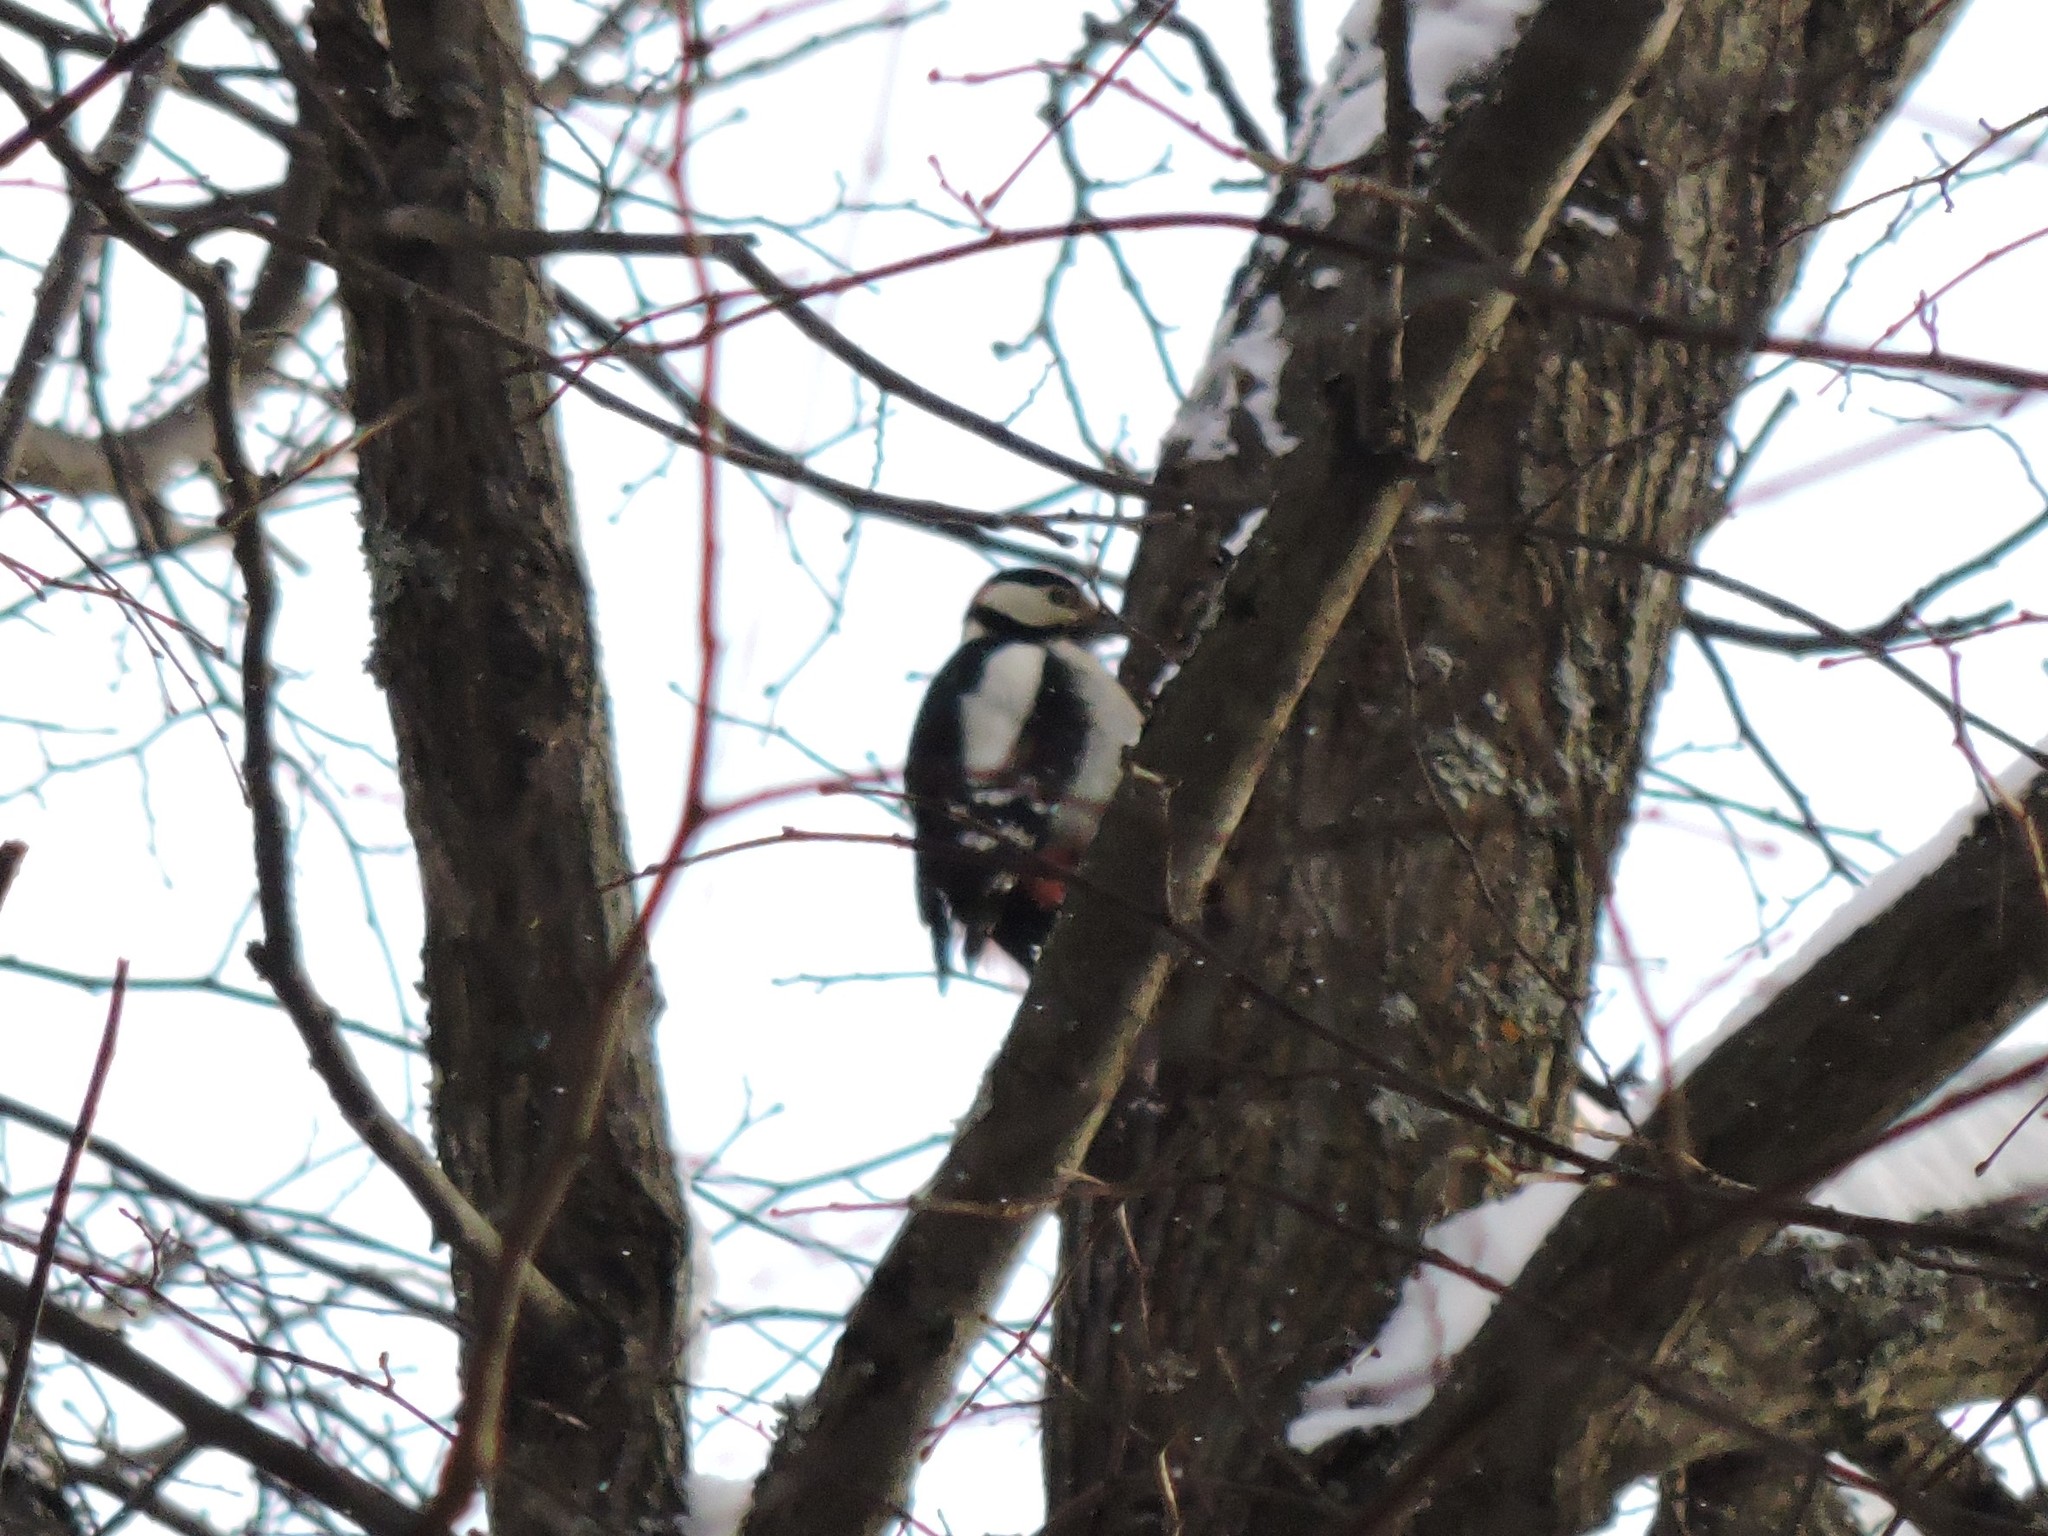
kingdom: Animalia
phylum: Chordata
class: Aves
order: Piciformes
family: Picidae
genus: Dendrocopos
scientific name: Dendrocopos major
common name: Great spotted woodpecker
